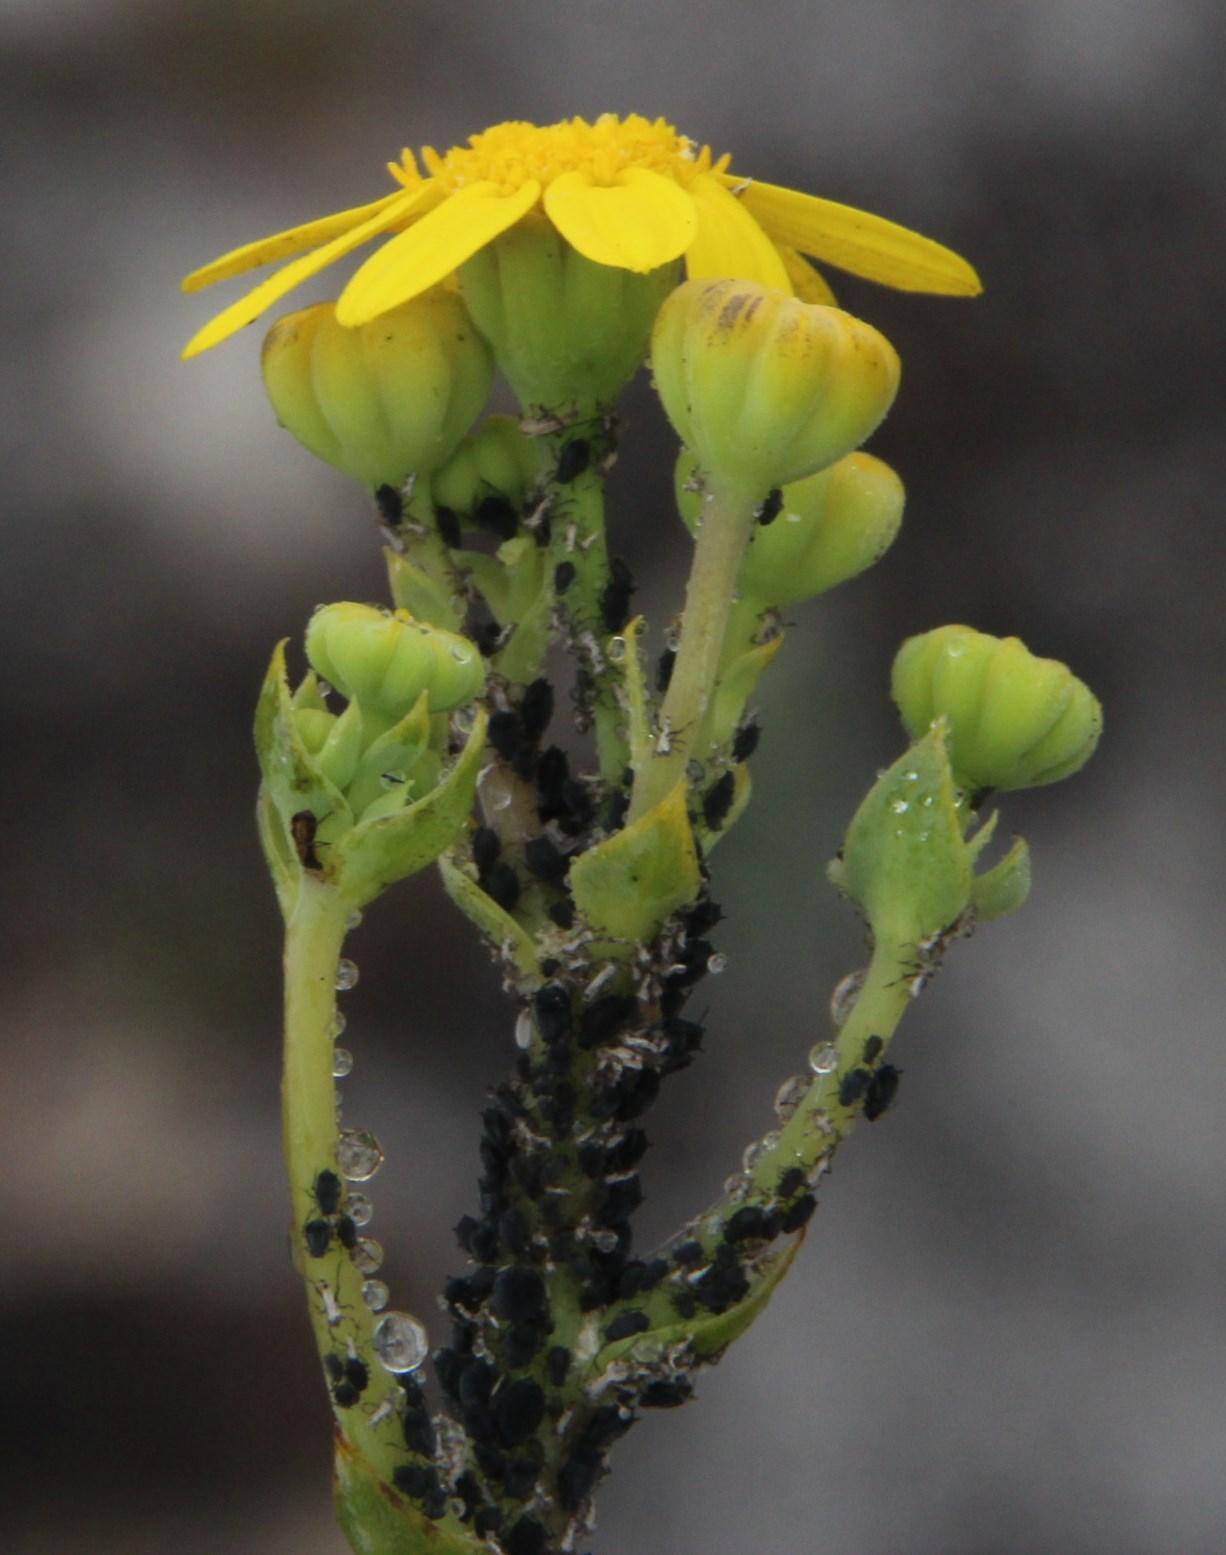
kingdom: Plantae
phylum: Tracheophyta
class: Magnoliopsida
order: Asterales
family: Asteraceae
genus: Othonna
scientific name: Othonna quinquedentata
